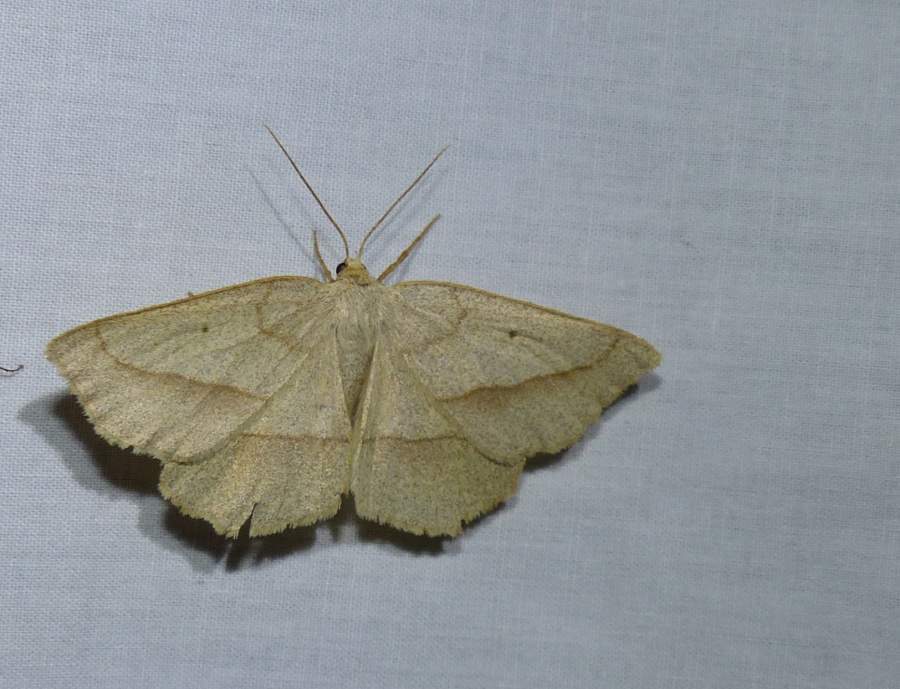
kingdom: Animalia
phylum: Arthropoda
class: Insecta
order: Lepidoptera
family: Geometridae
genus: Euchlaena
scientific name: Euchlaena irraria
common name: Least-marked euchlaena
